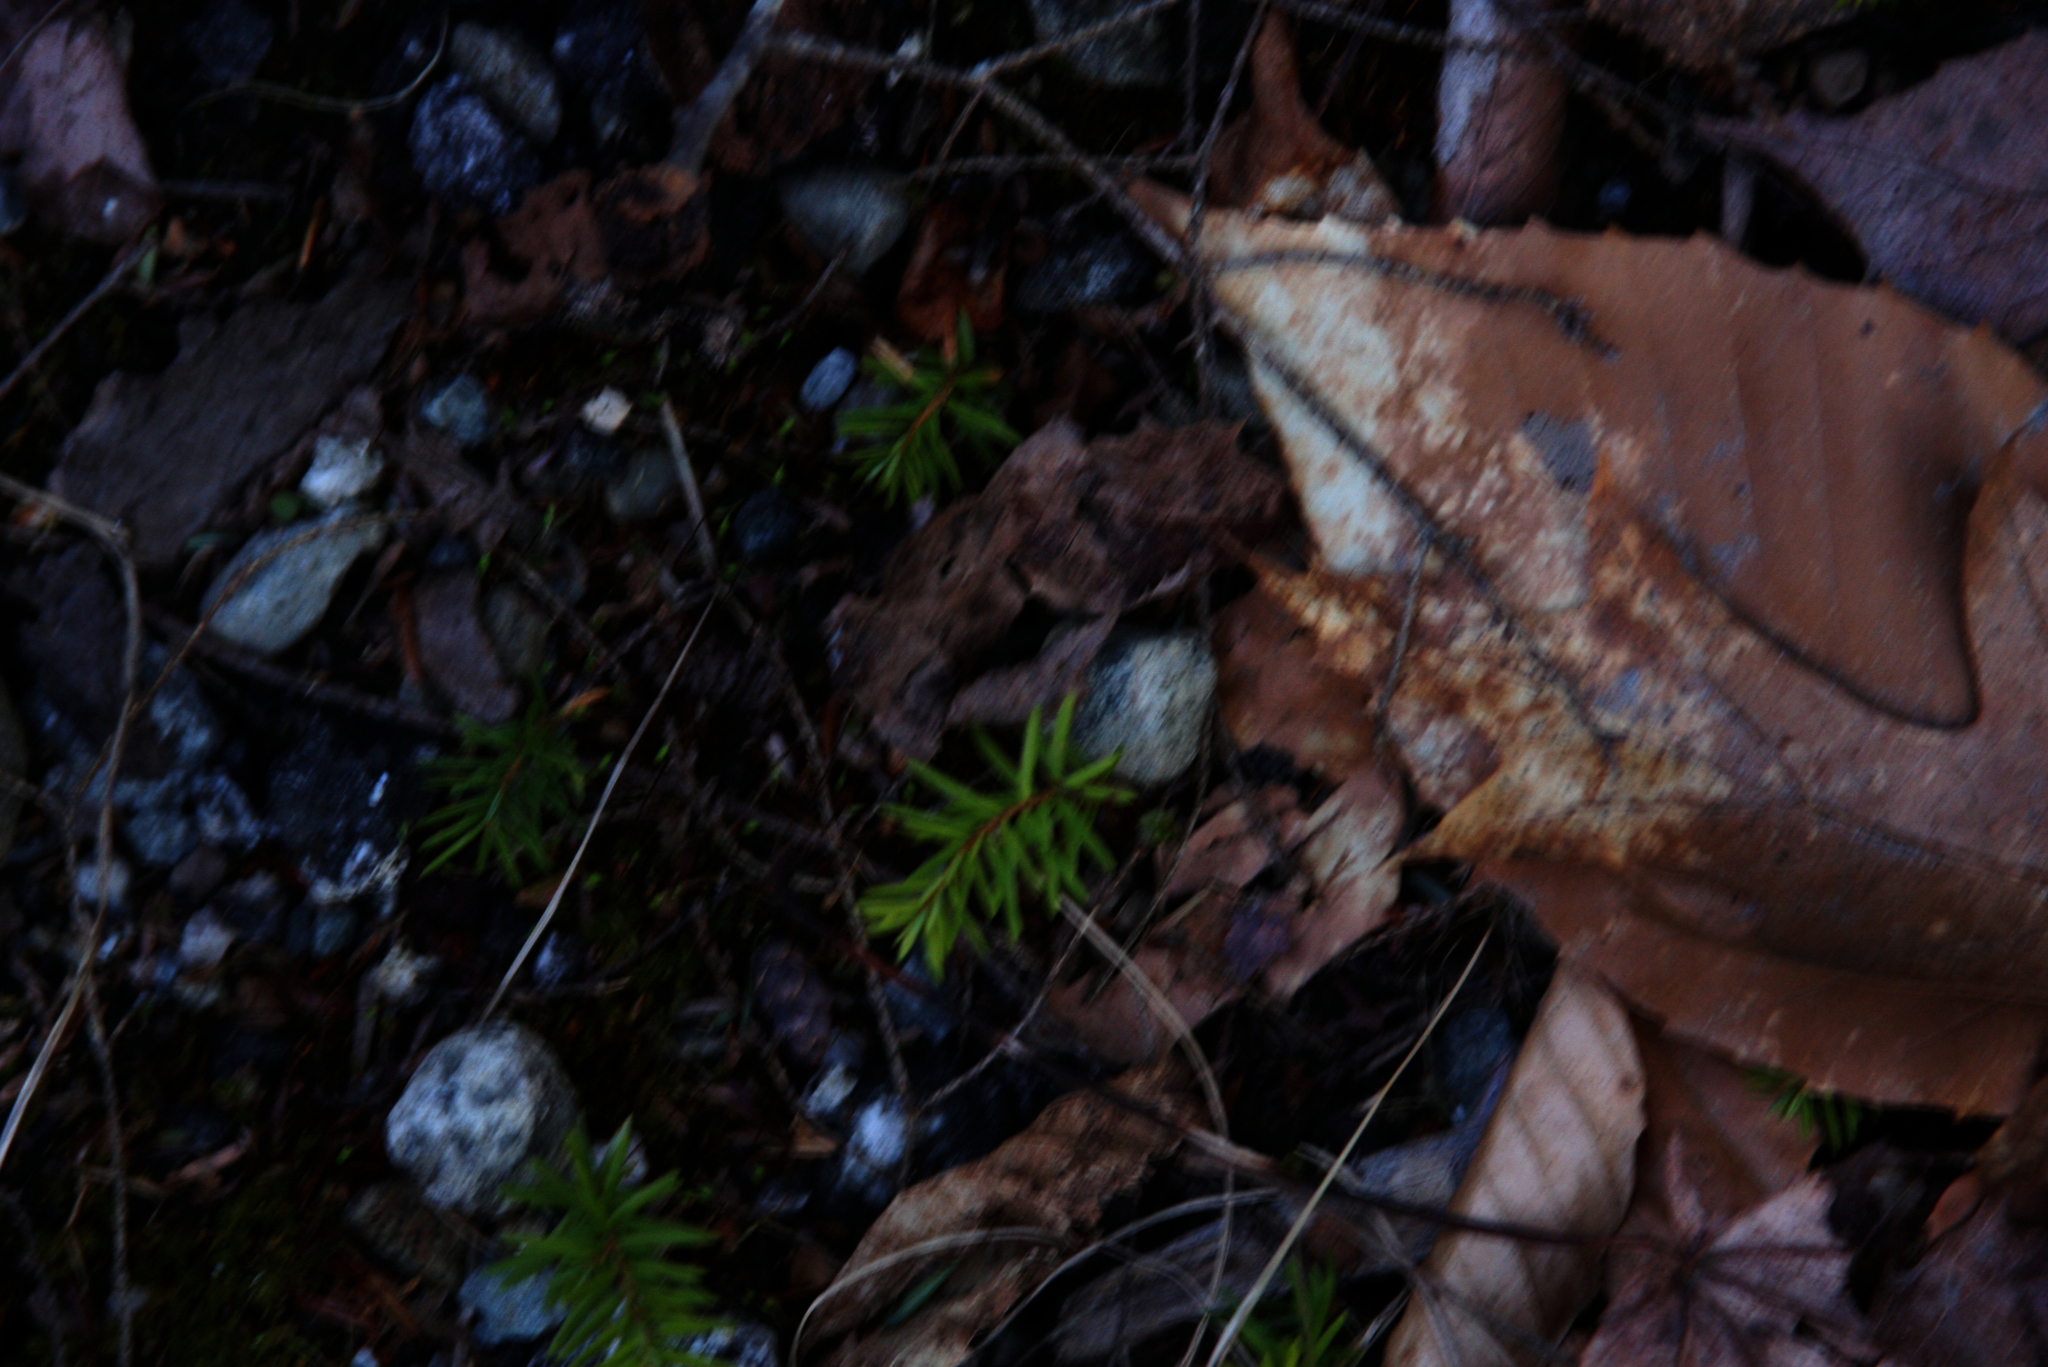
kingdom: Plantae
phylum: Tracheophyta
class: Pinopsida
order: Pinales
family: Pinaceae
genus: Tsuga
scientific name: Tsuga canadensis
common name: Eastern hemlock
